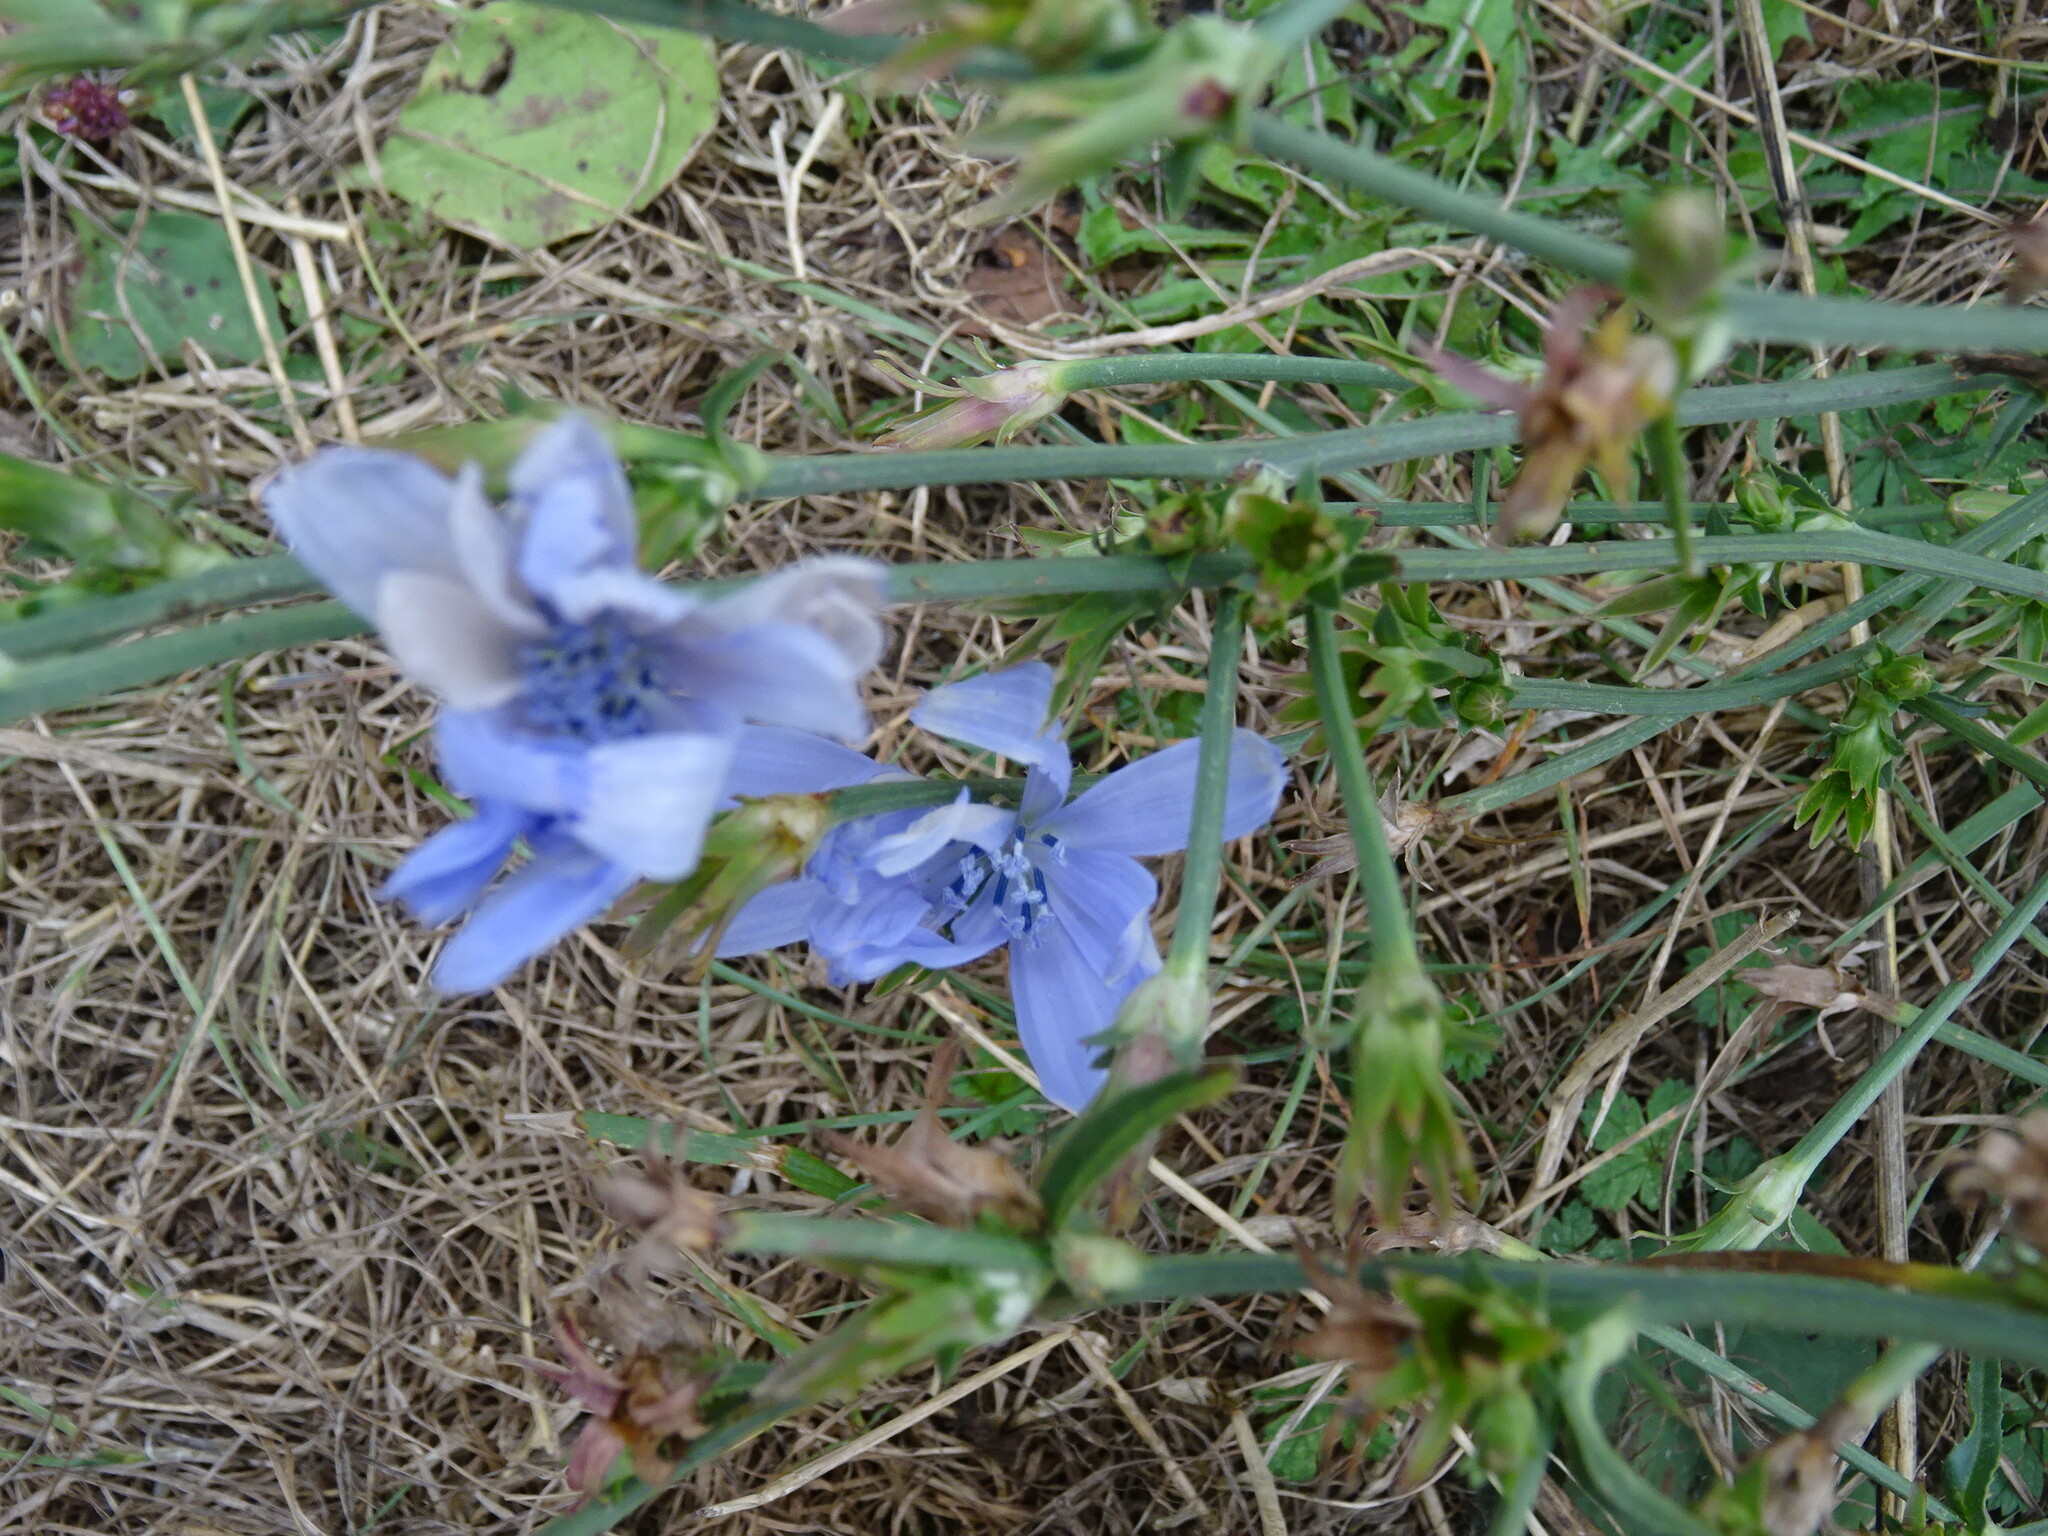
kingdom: Plantae
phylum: Tracheophyta
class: Magnoliopsida
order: Asterales
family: Asteraceae
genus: Cichorium
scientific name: Cichorium intybus
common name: Chicory
